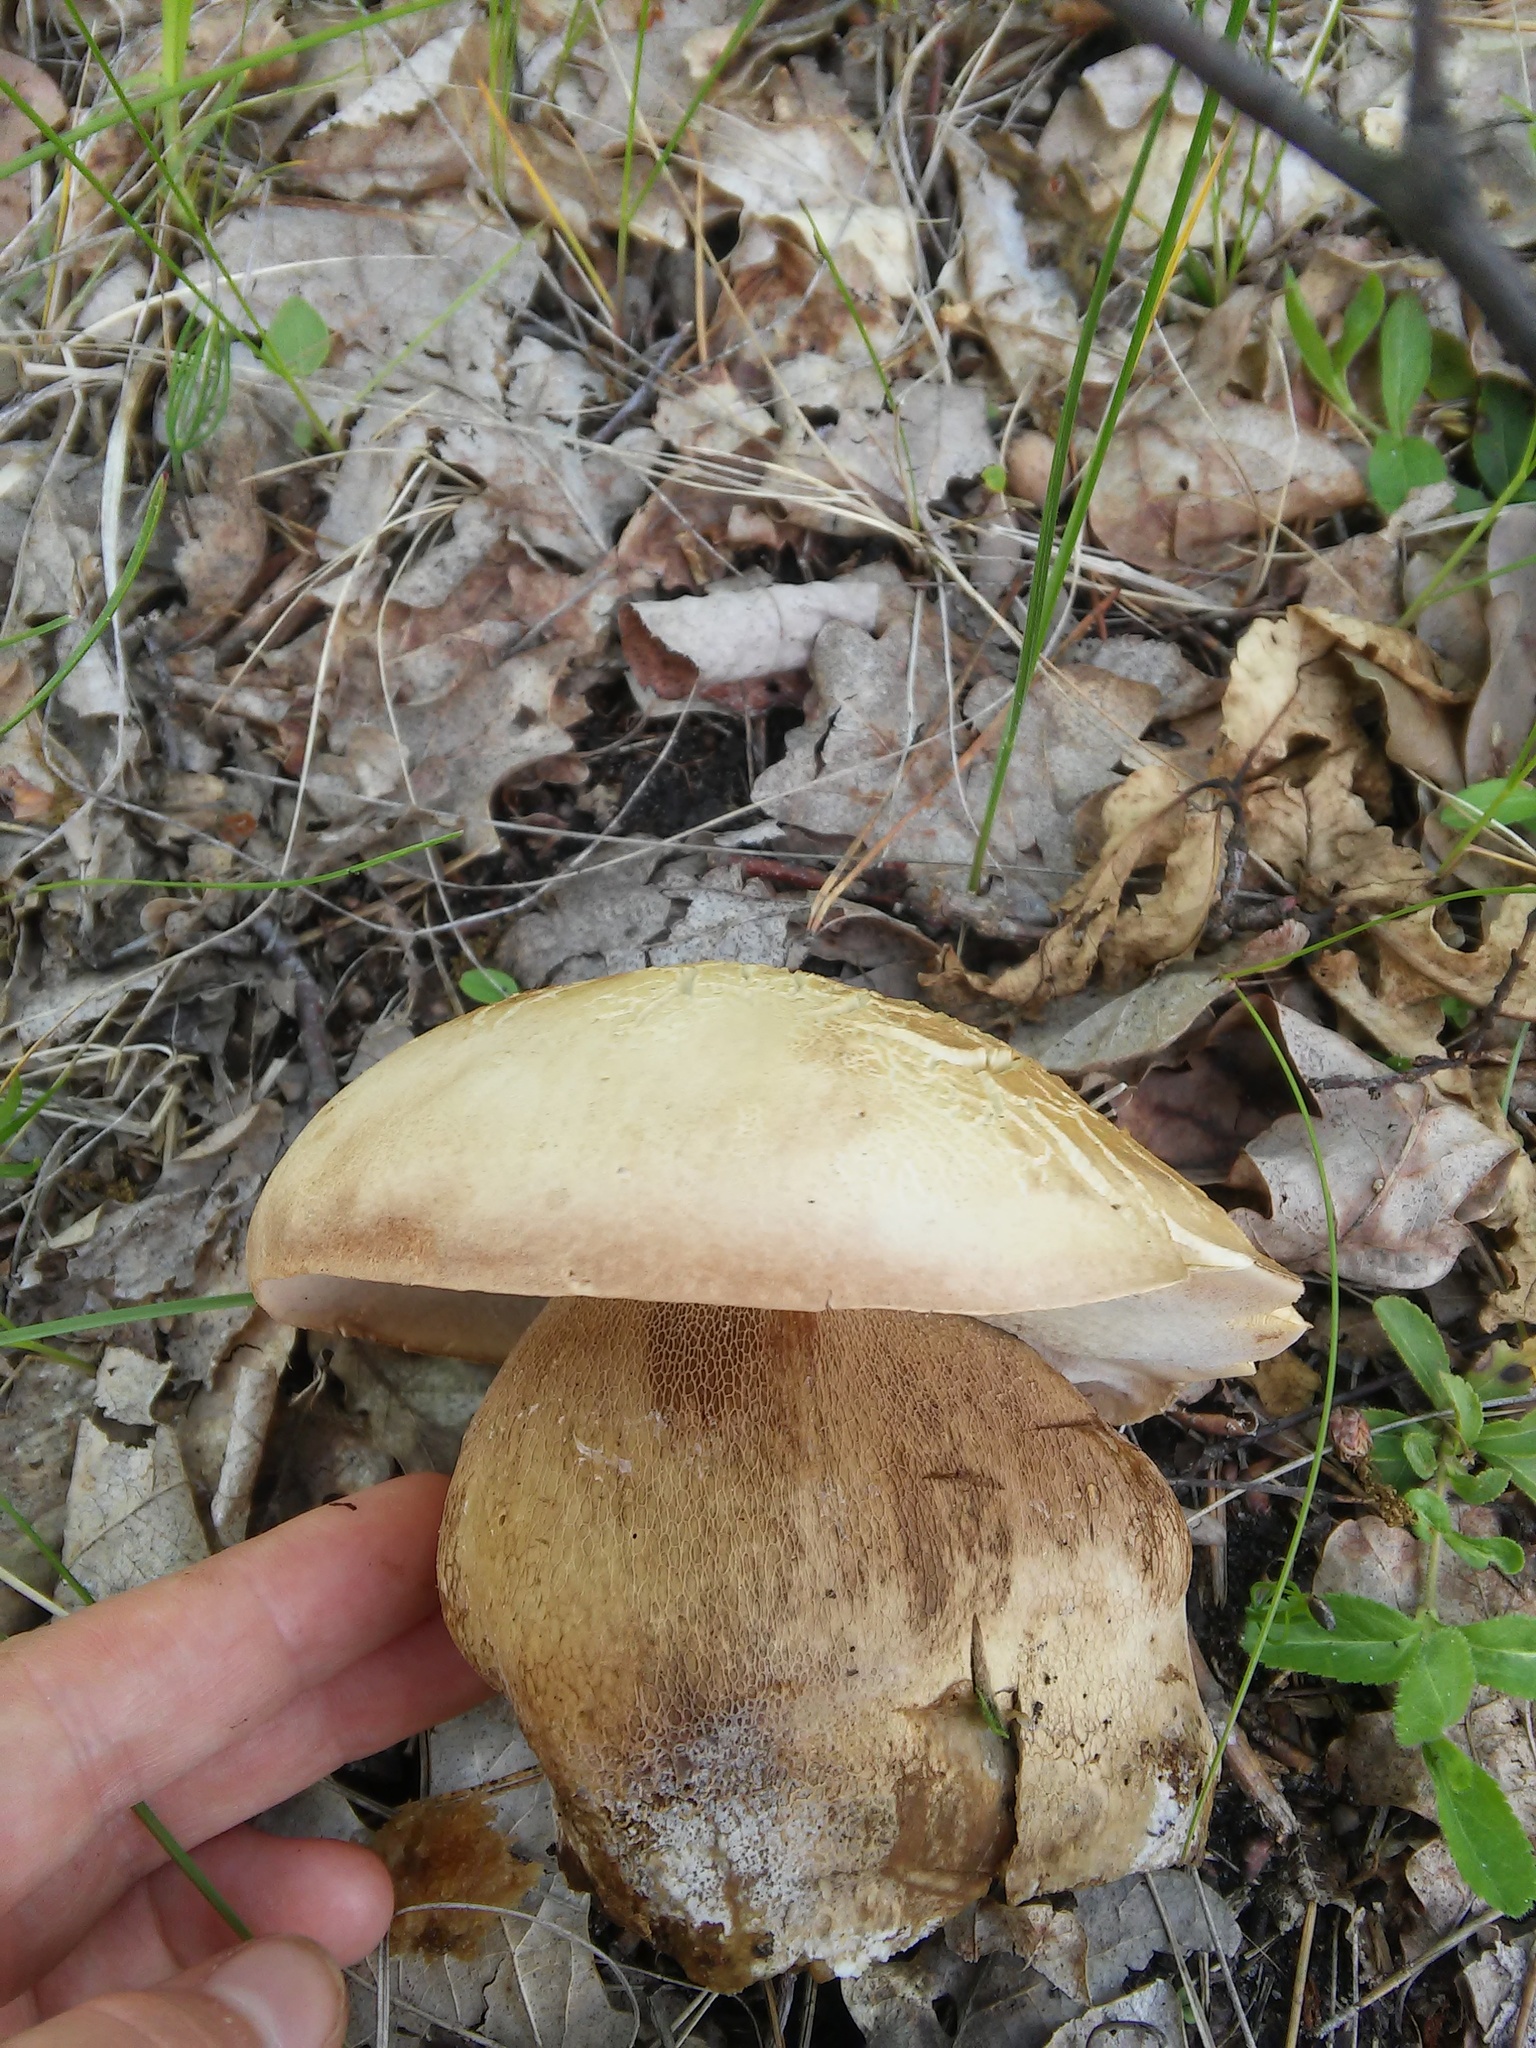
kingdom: Fungi
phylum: Basidiomycota
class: Agaricomycetes
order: Boletales
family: Boletaceae
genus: Boletus
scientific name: Boletus edulis
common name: Cep
